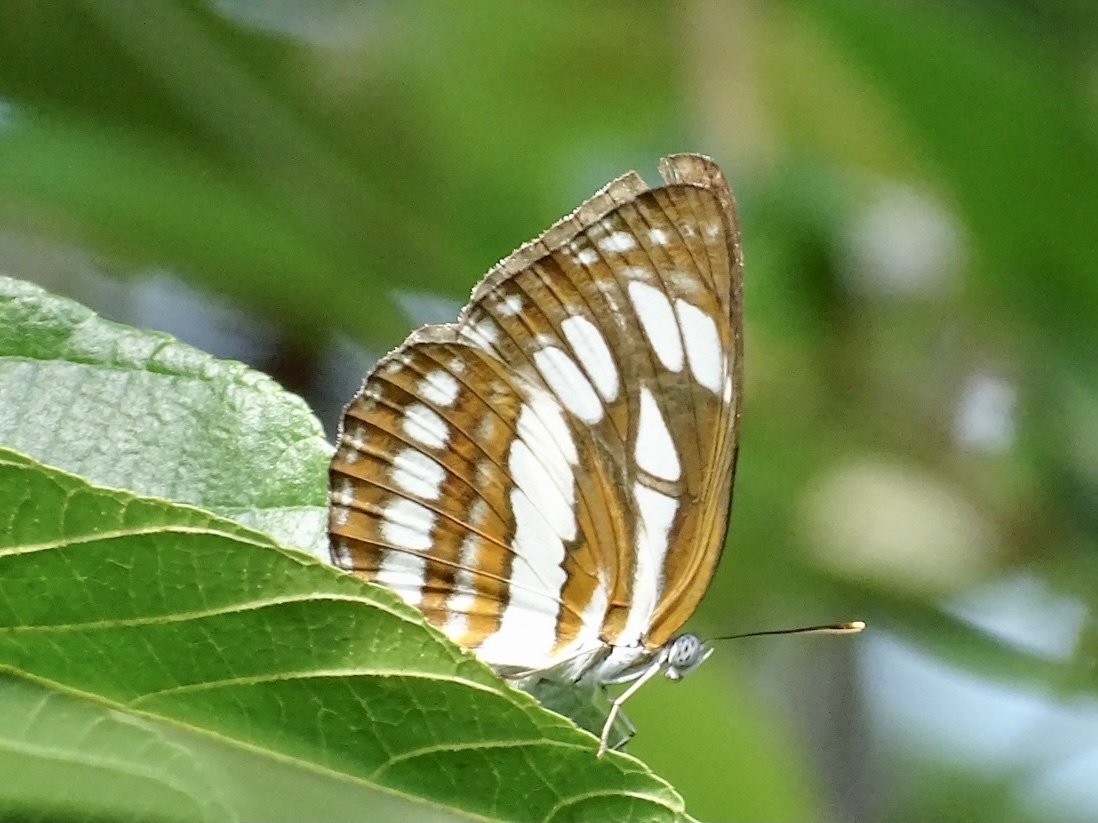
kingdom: Animalia
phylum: Arthropoda
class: Insecta
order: Lepidoptera
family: Nymphalidae
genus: Neptis
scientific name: Neptis hylas
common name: Common sailer
